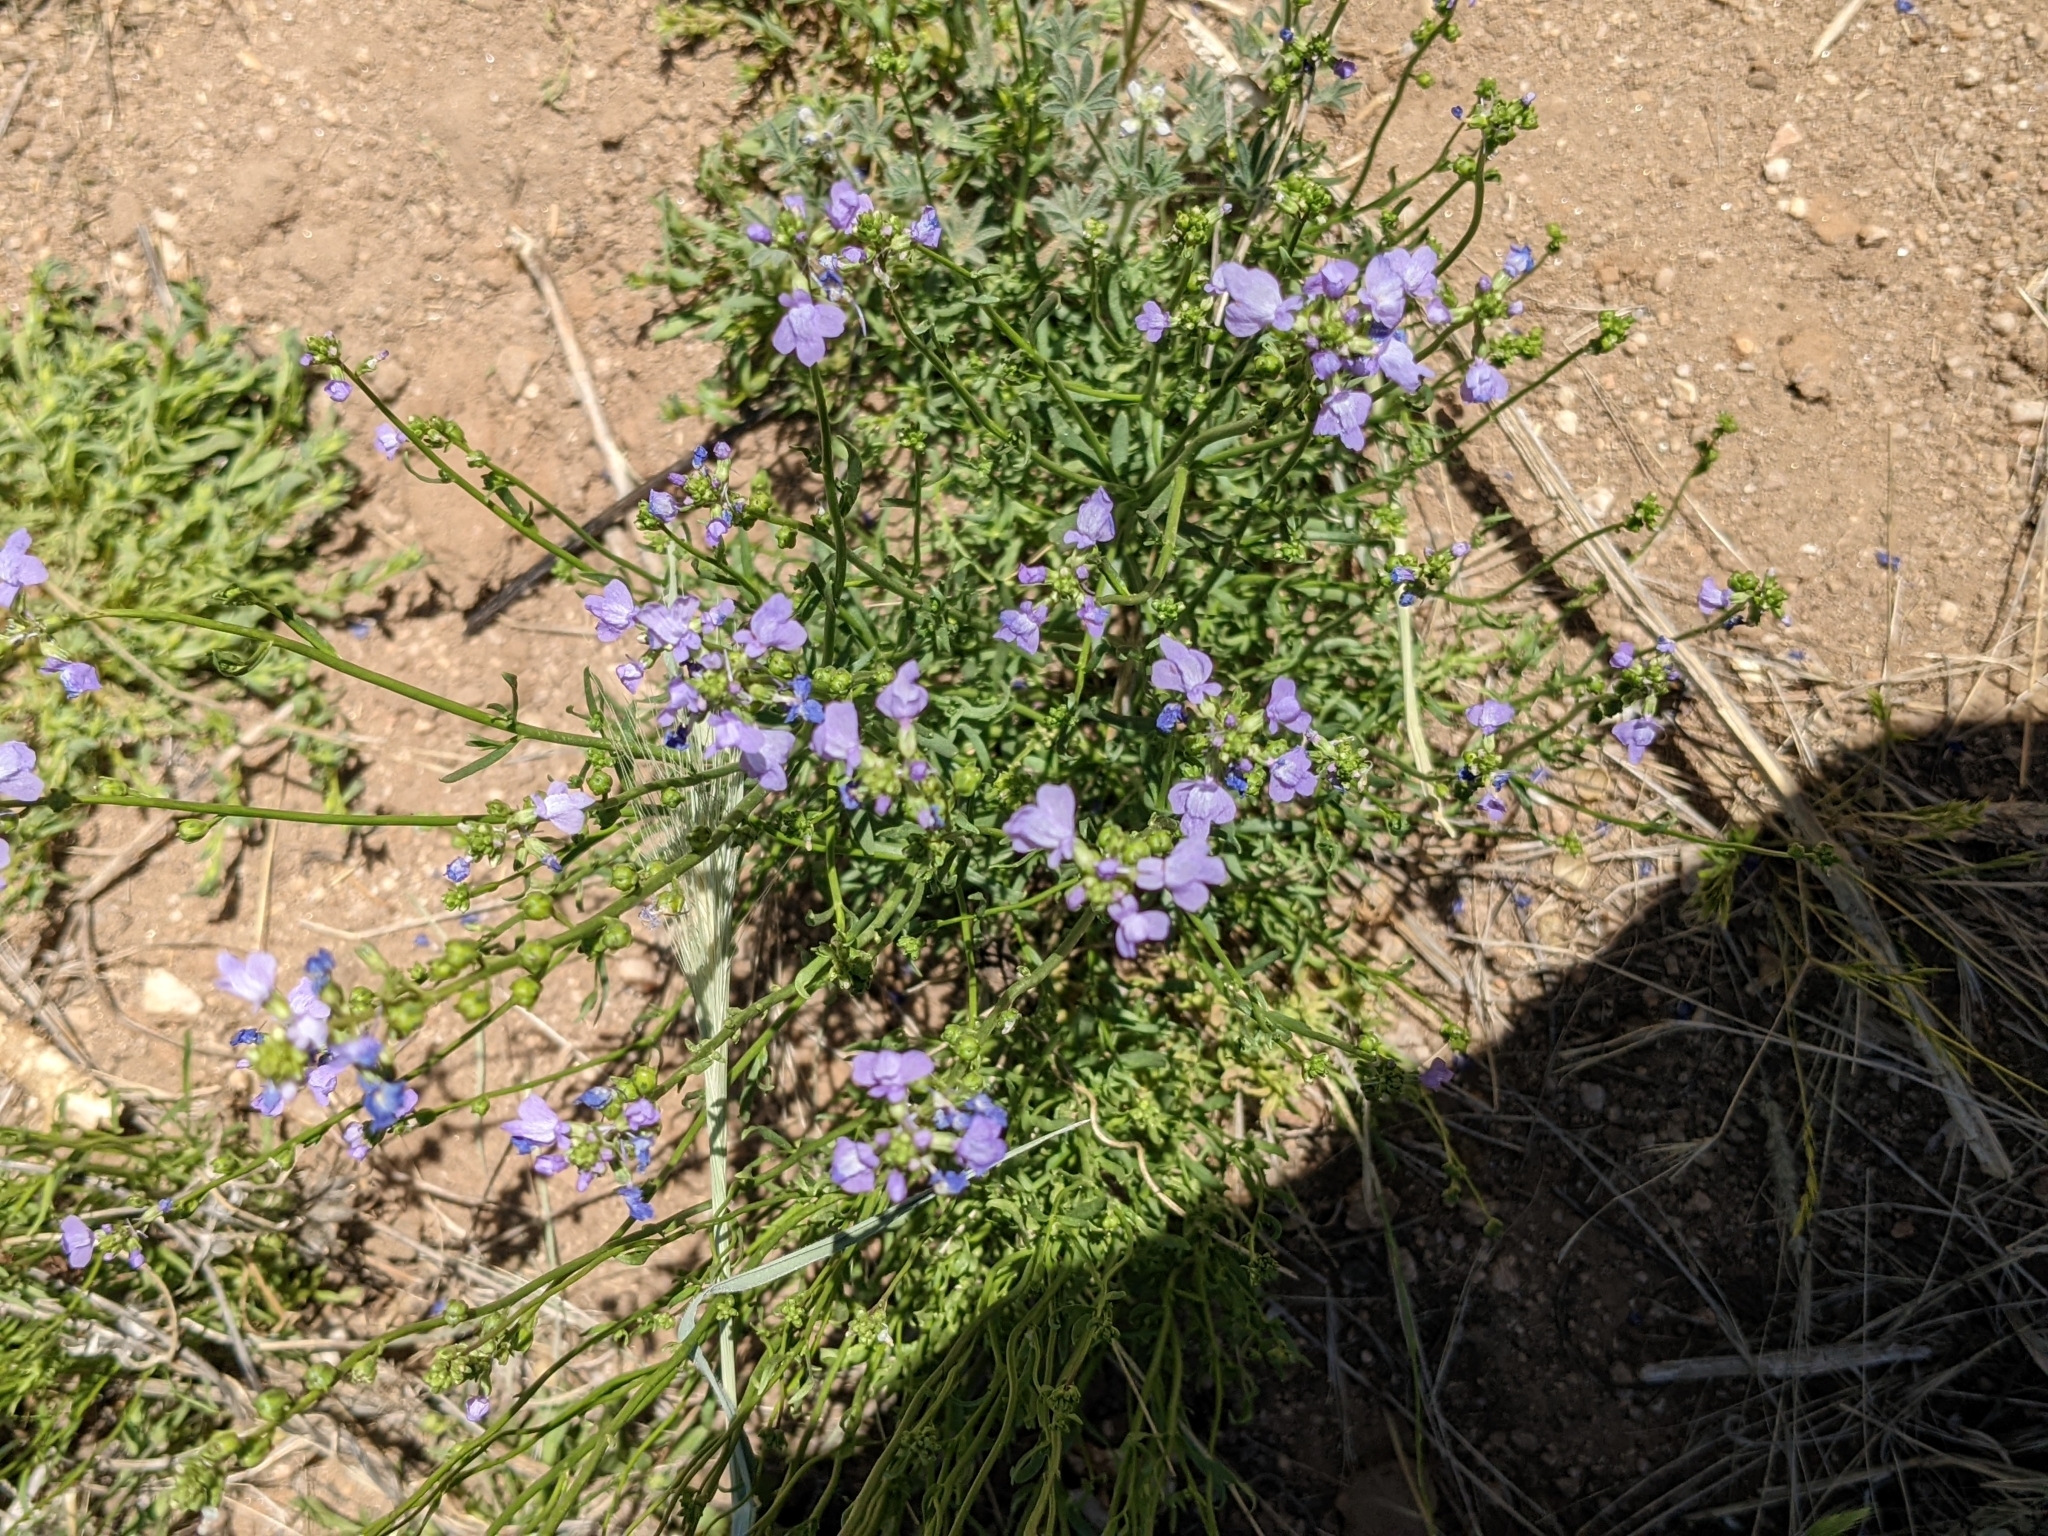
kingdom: Plantae
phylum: Tracheophyta
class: Magnoliopsida
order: Boraginales
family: Namaceae
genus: Nama
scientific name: Nama hispida
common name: Bristly nama
